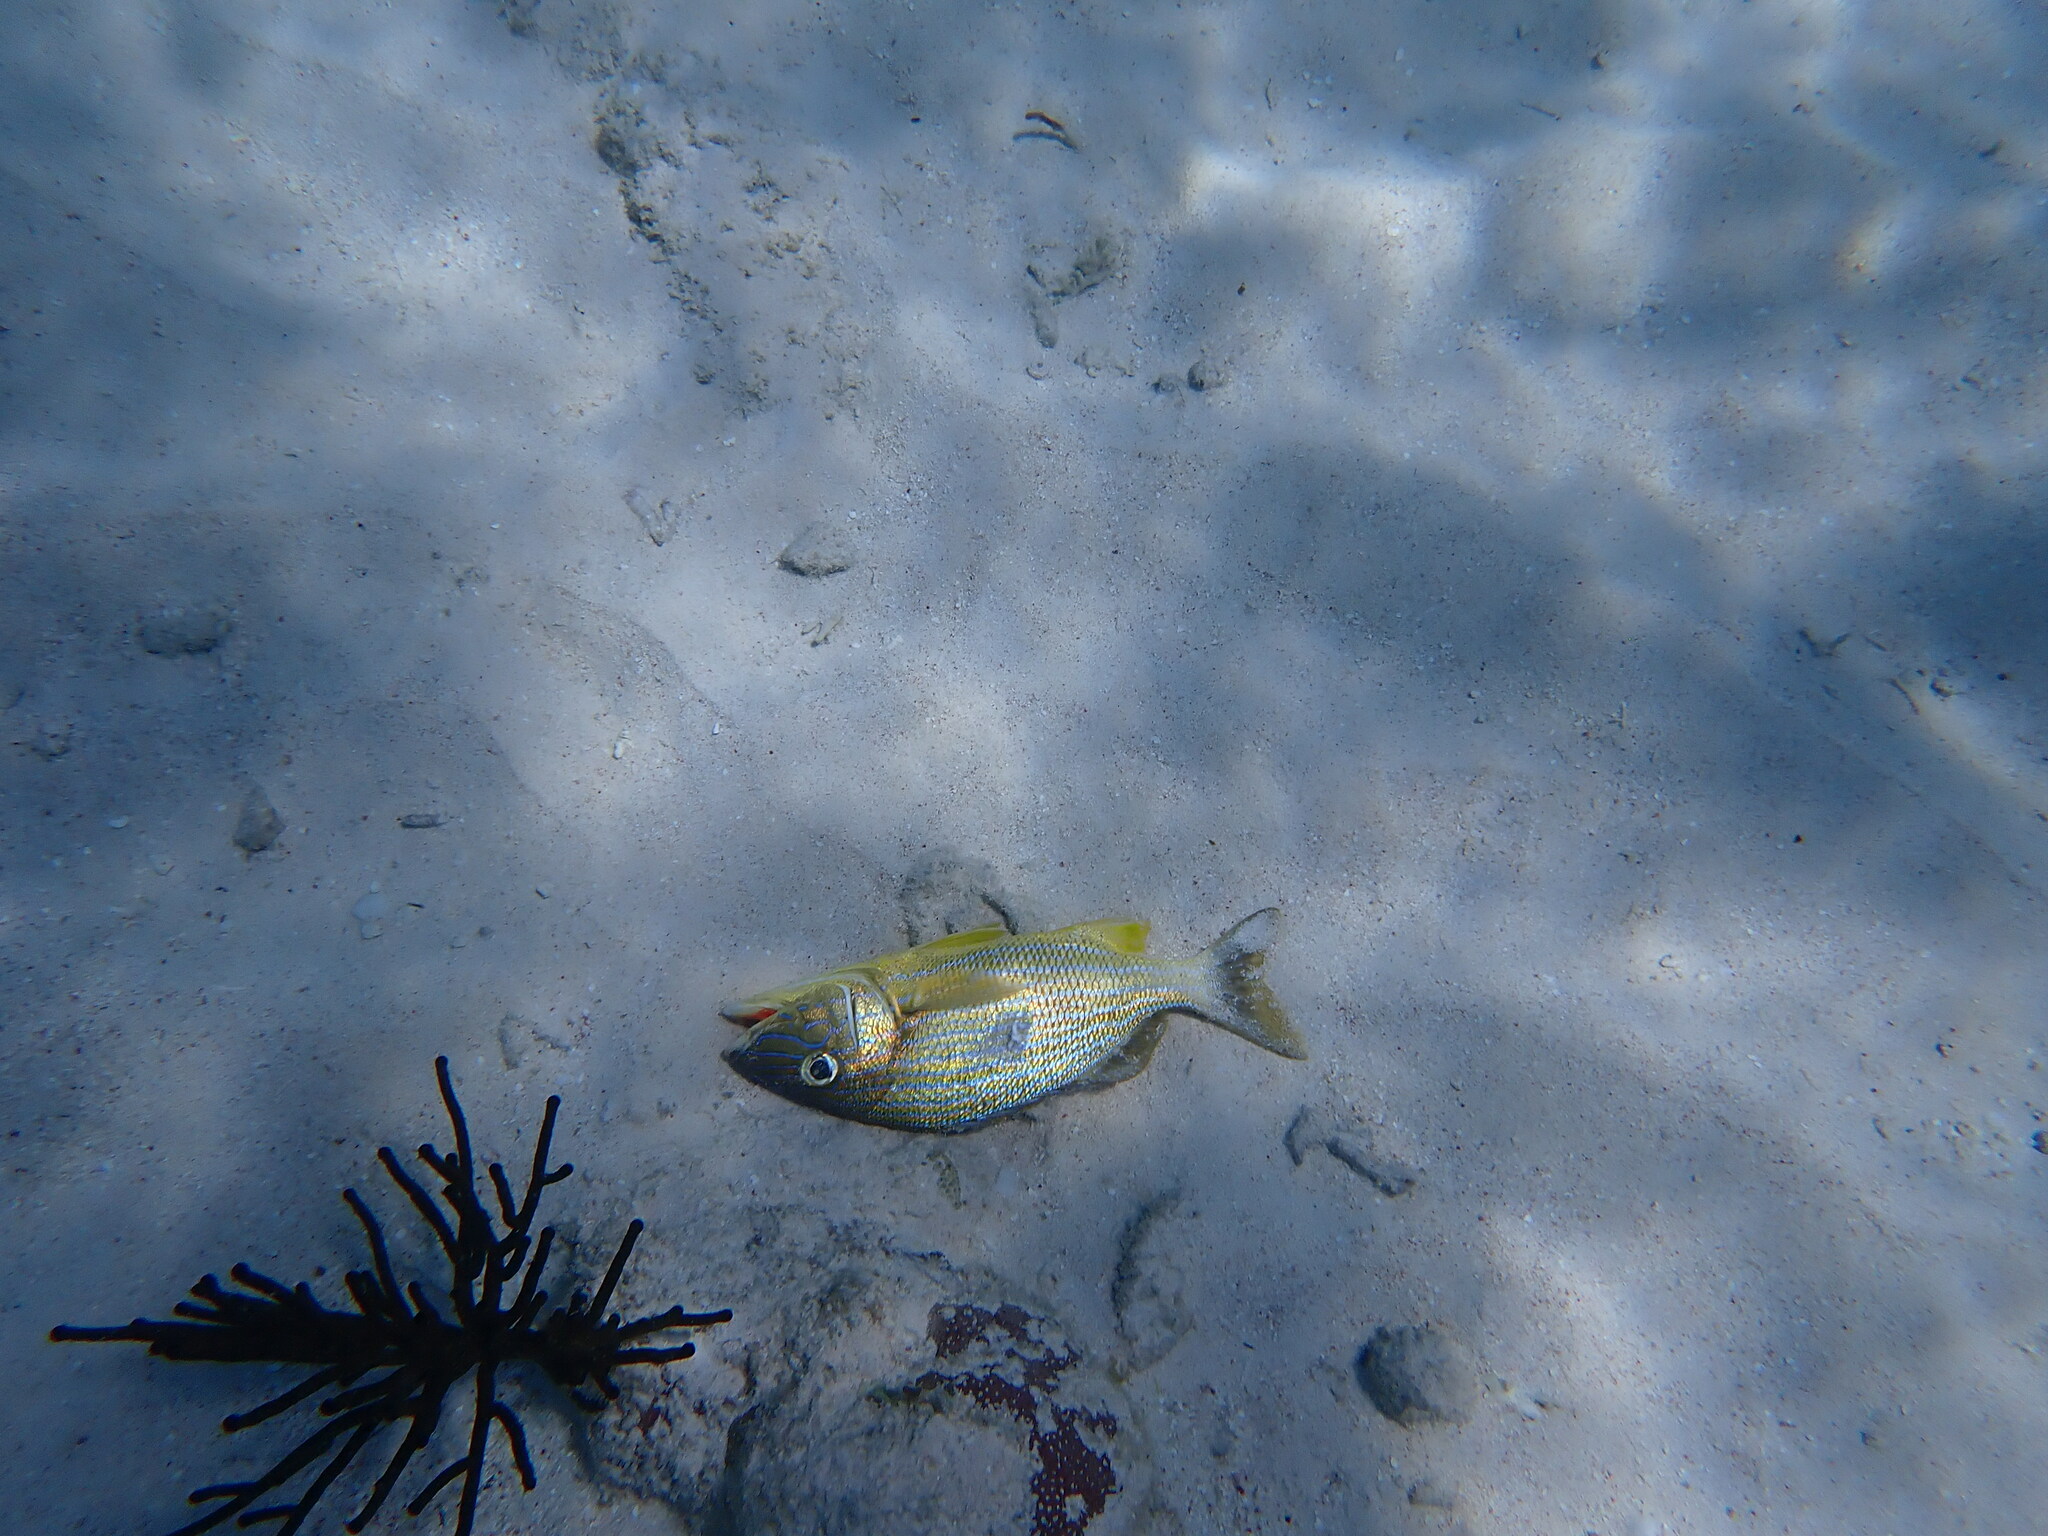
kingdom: Animalia
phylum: Chordata
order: Perciformes
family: Haemulidae
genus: Haemulon
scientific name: Haemulon plumierii
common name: White grunt
